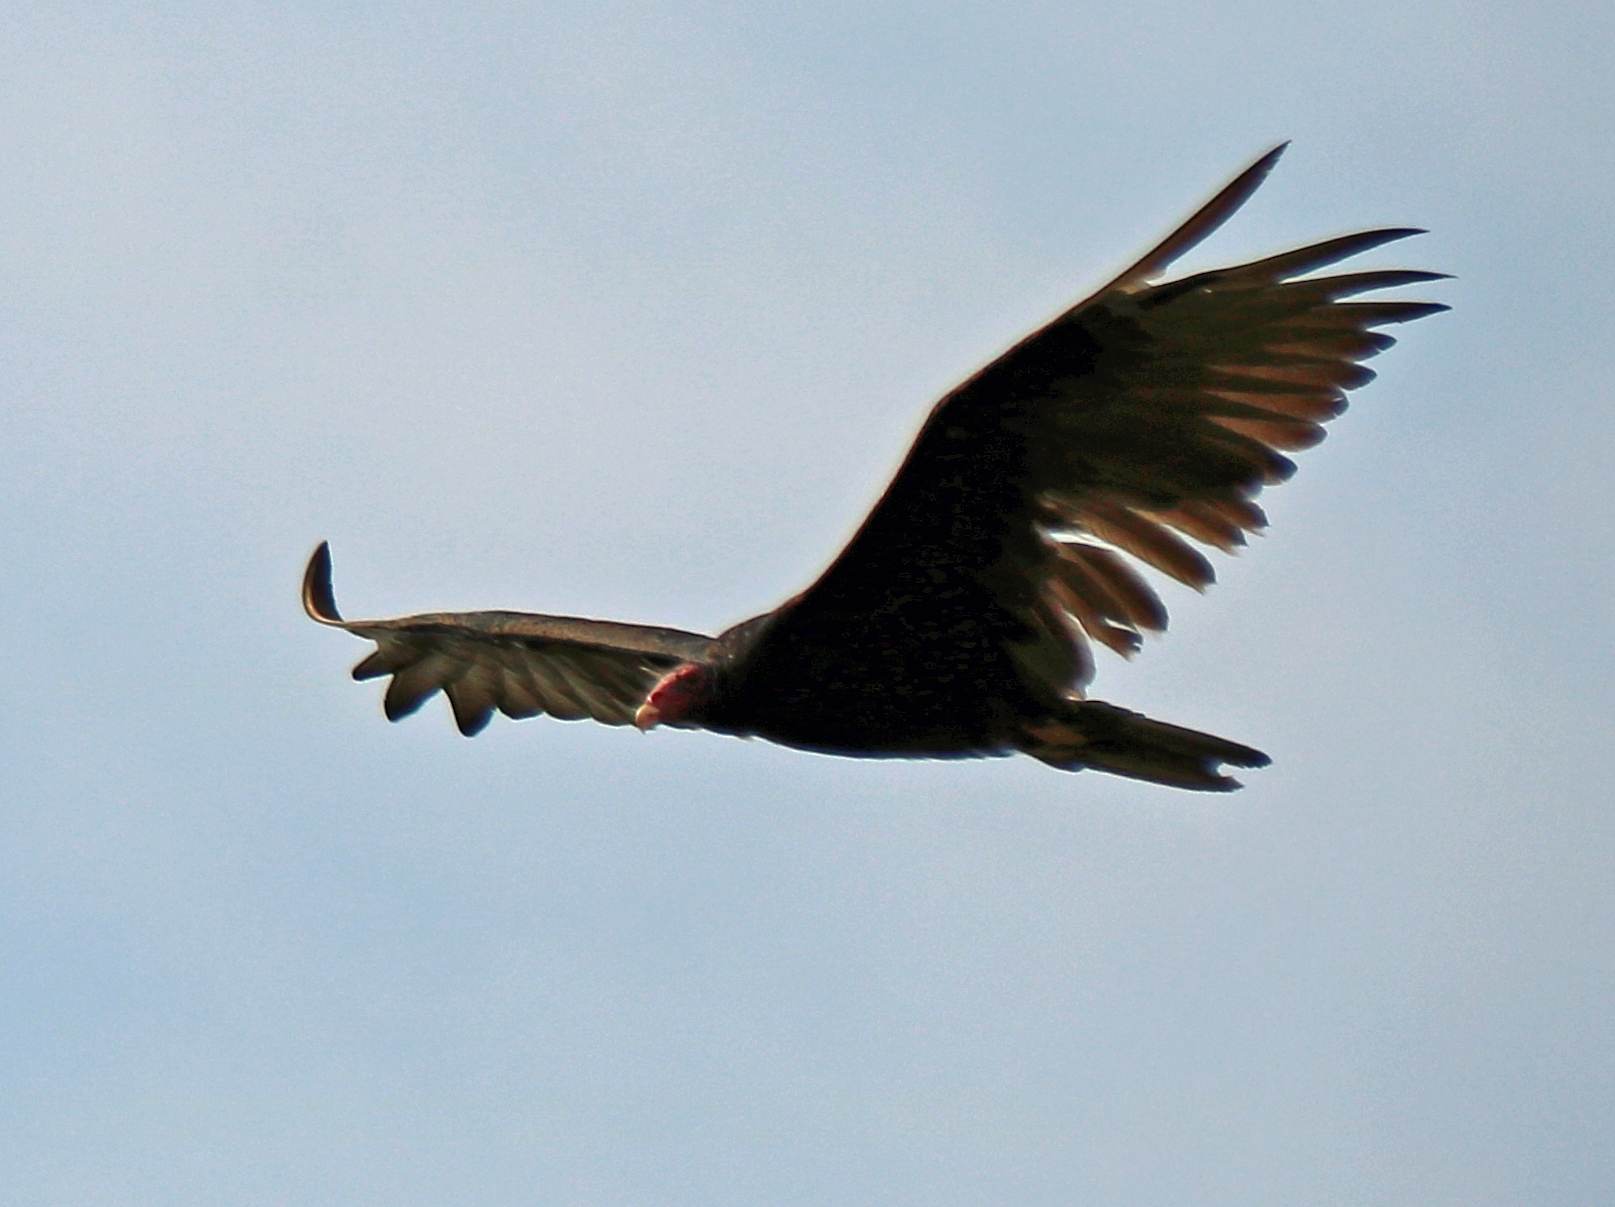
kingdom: Animalia
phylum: Chordata
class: Aves
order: Accipitriformes
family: Cathartidae
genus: Cathartes
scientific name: Cathartes aura
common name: Turkey vulture
